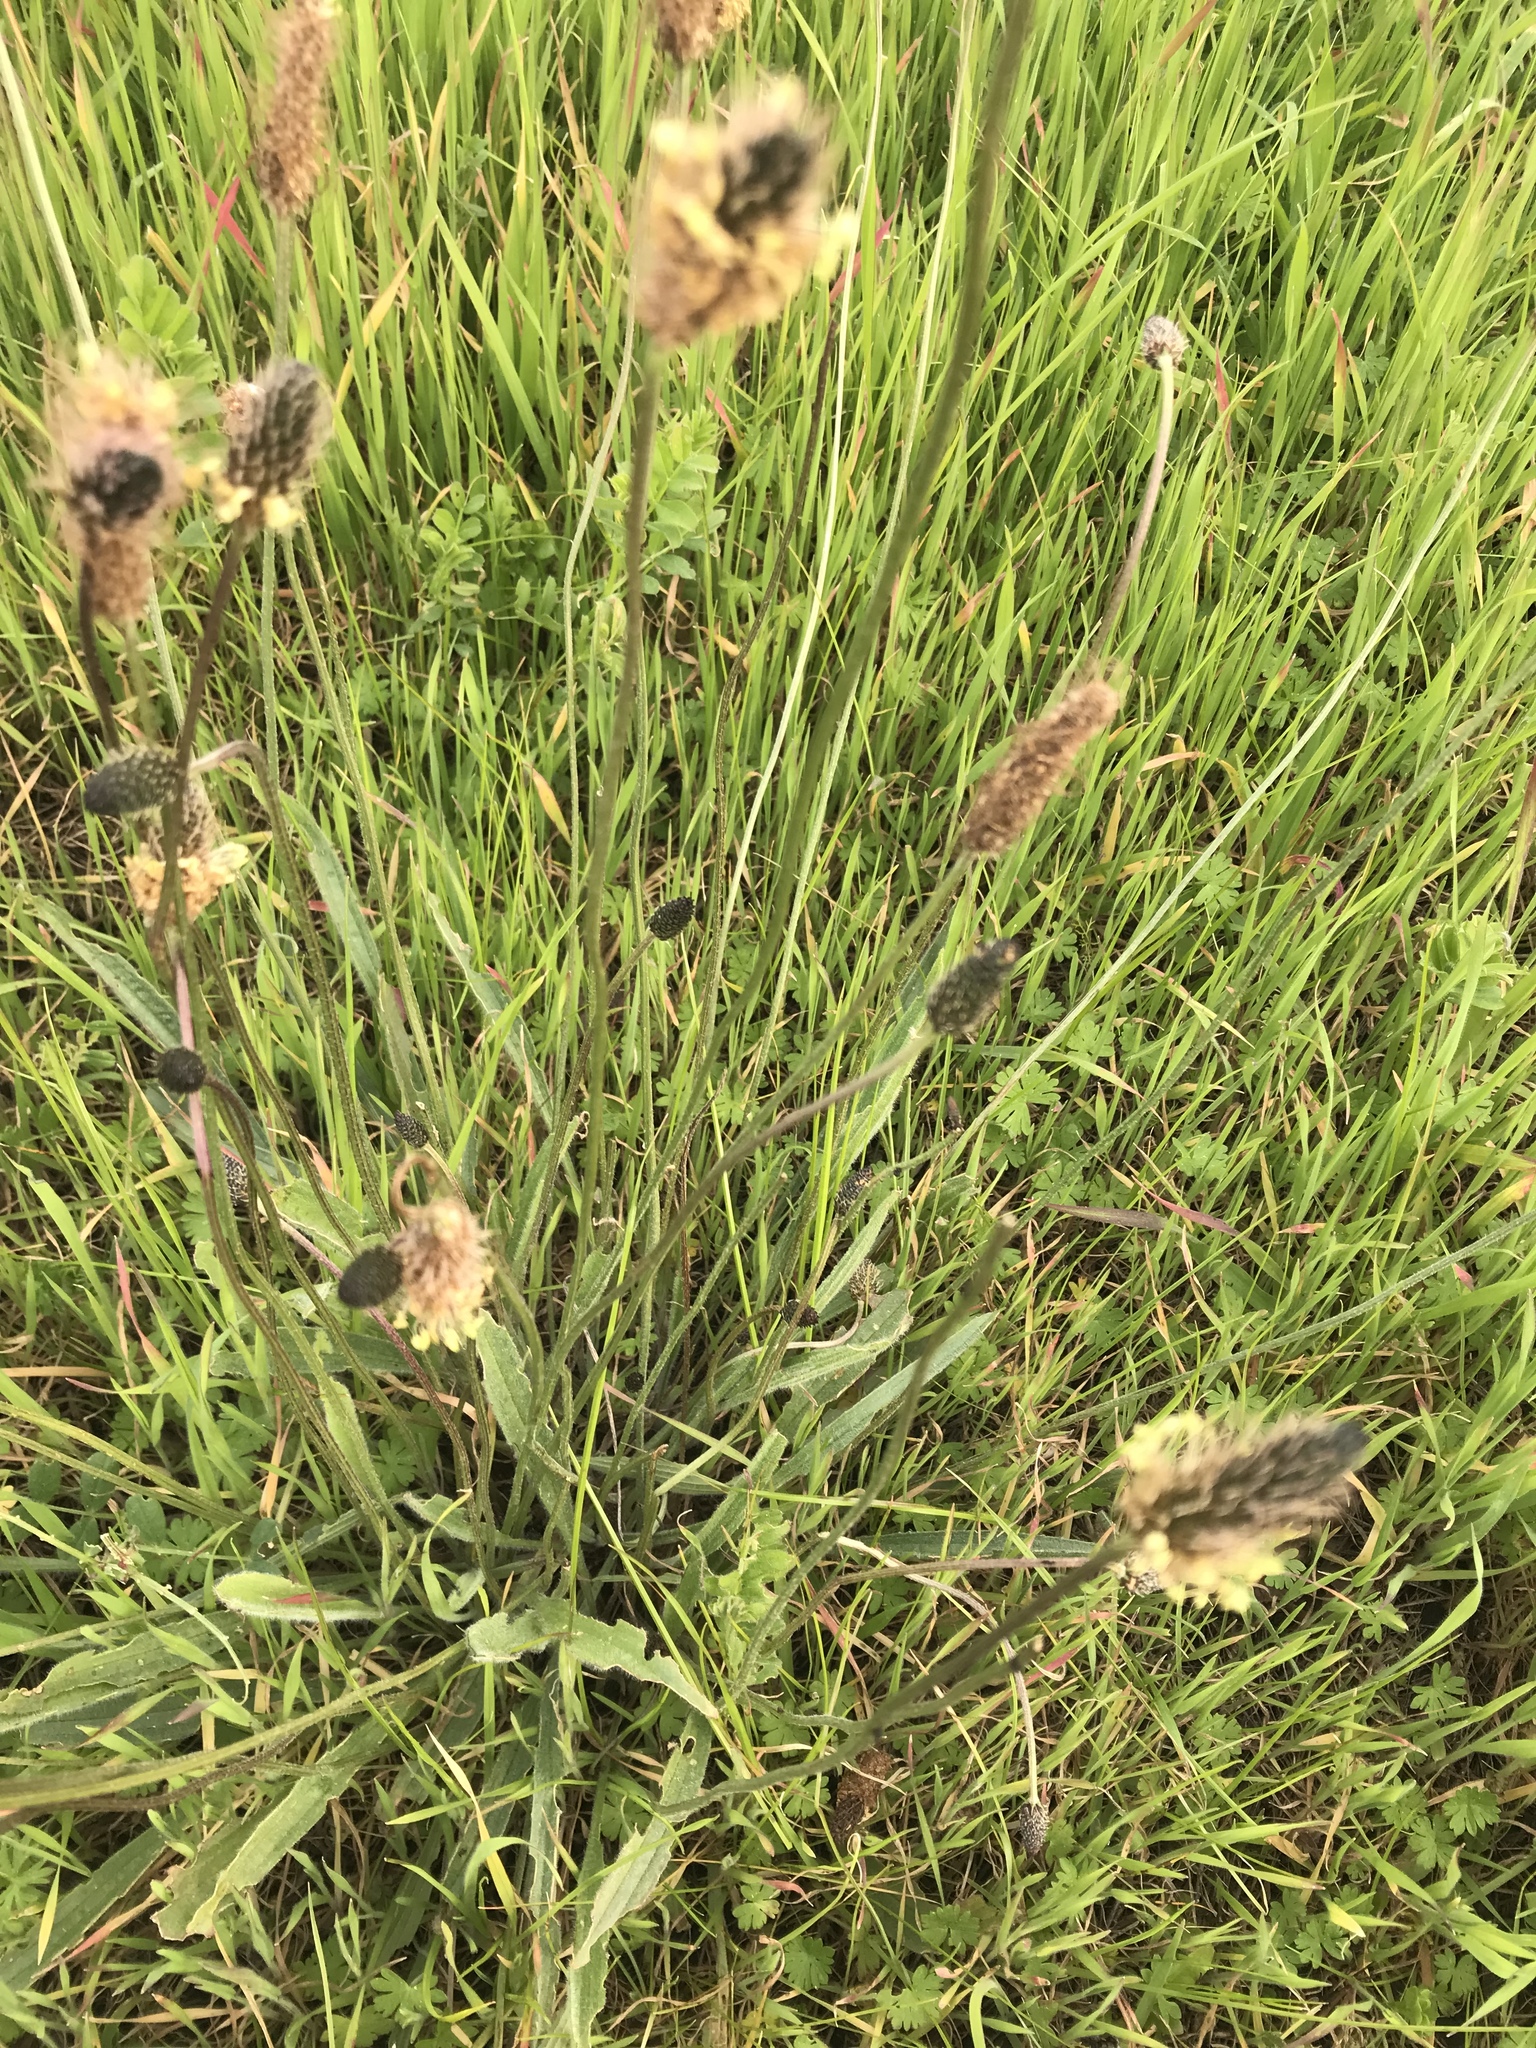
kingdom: Plantae
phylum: Tracheophyta
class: Magnoliopsida
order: Lamiales
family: Plantaginaceae
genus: Plantago
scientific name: Plantago lanceolata
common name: Ribwort plantain
